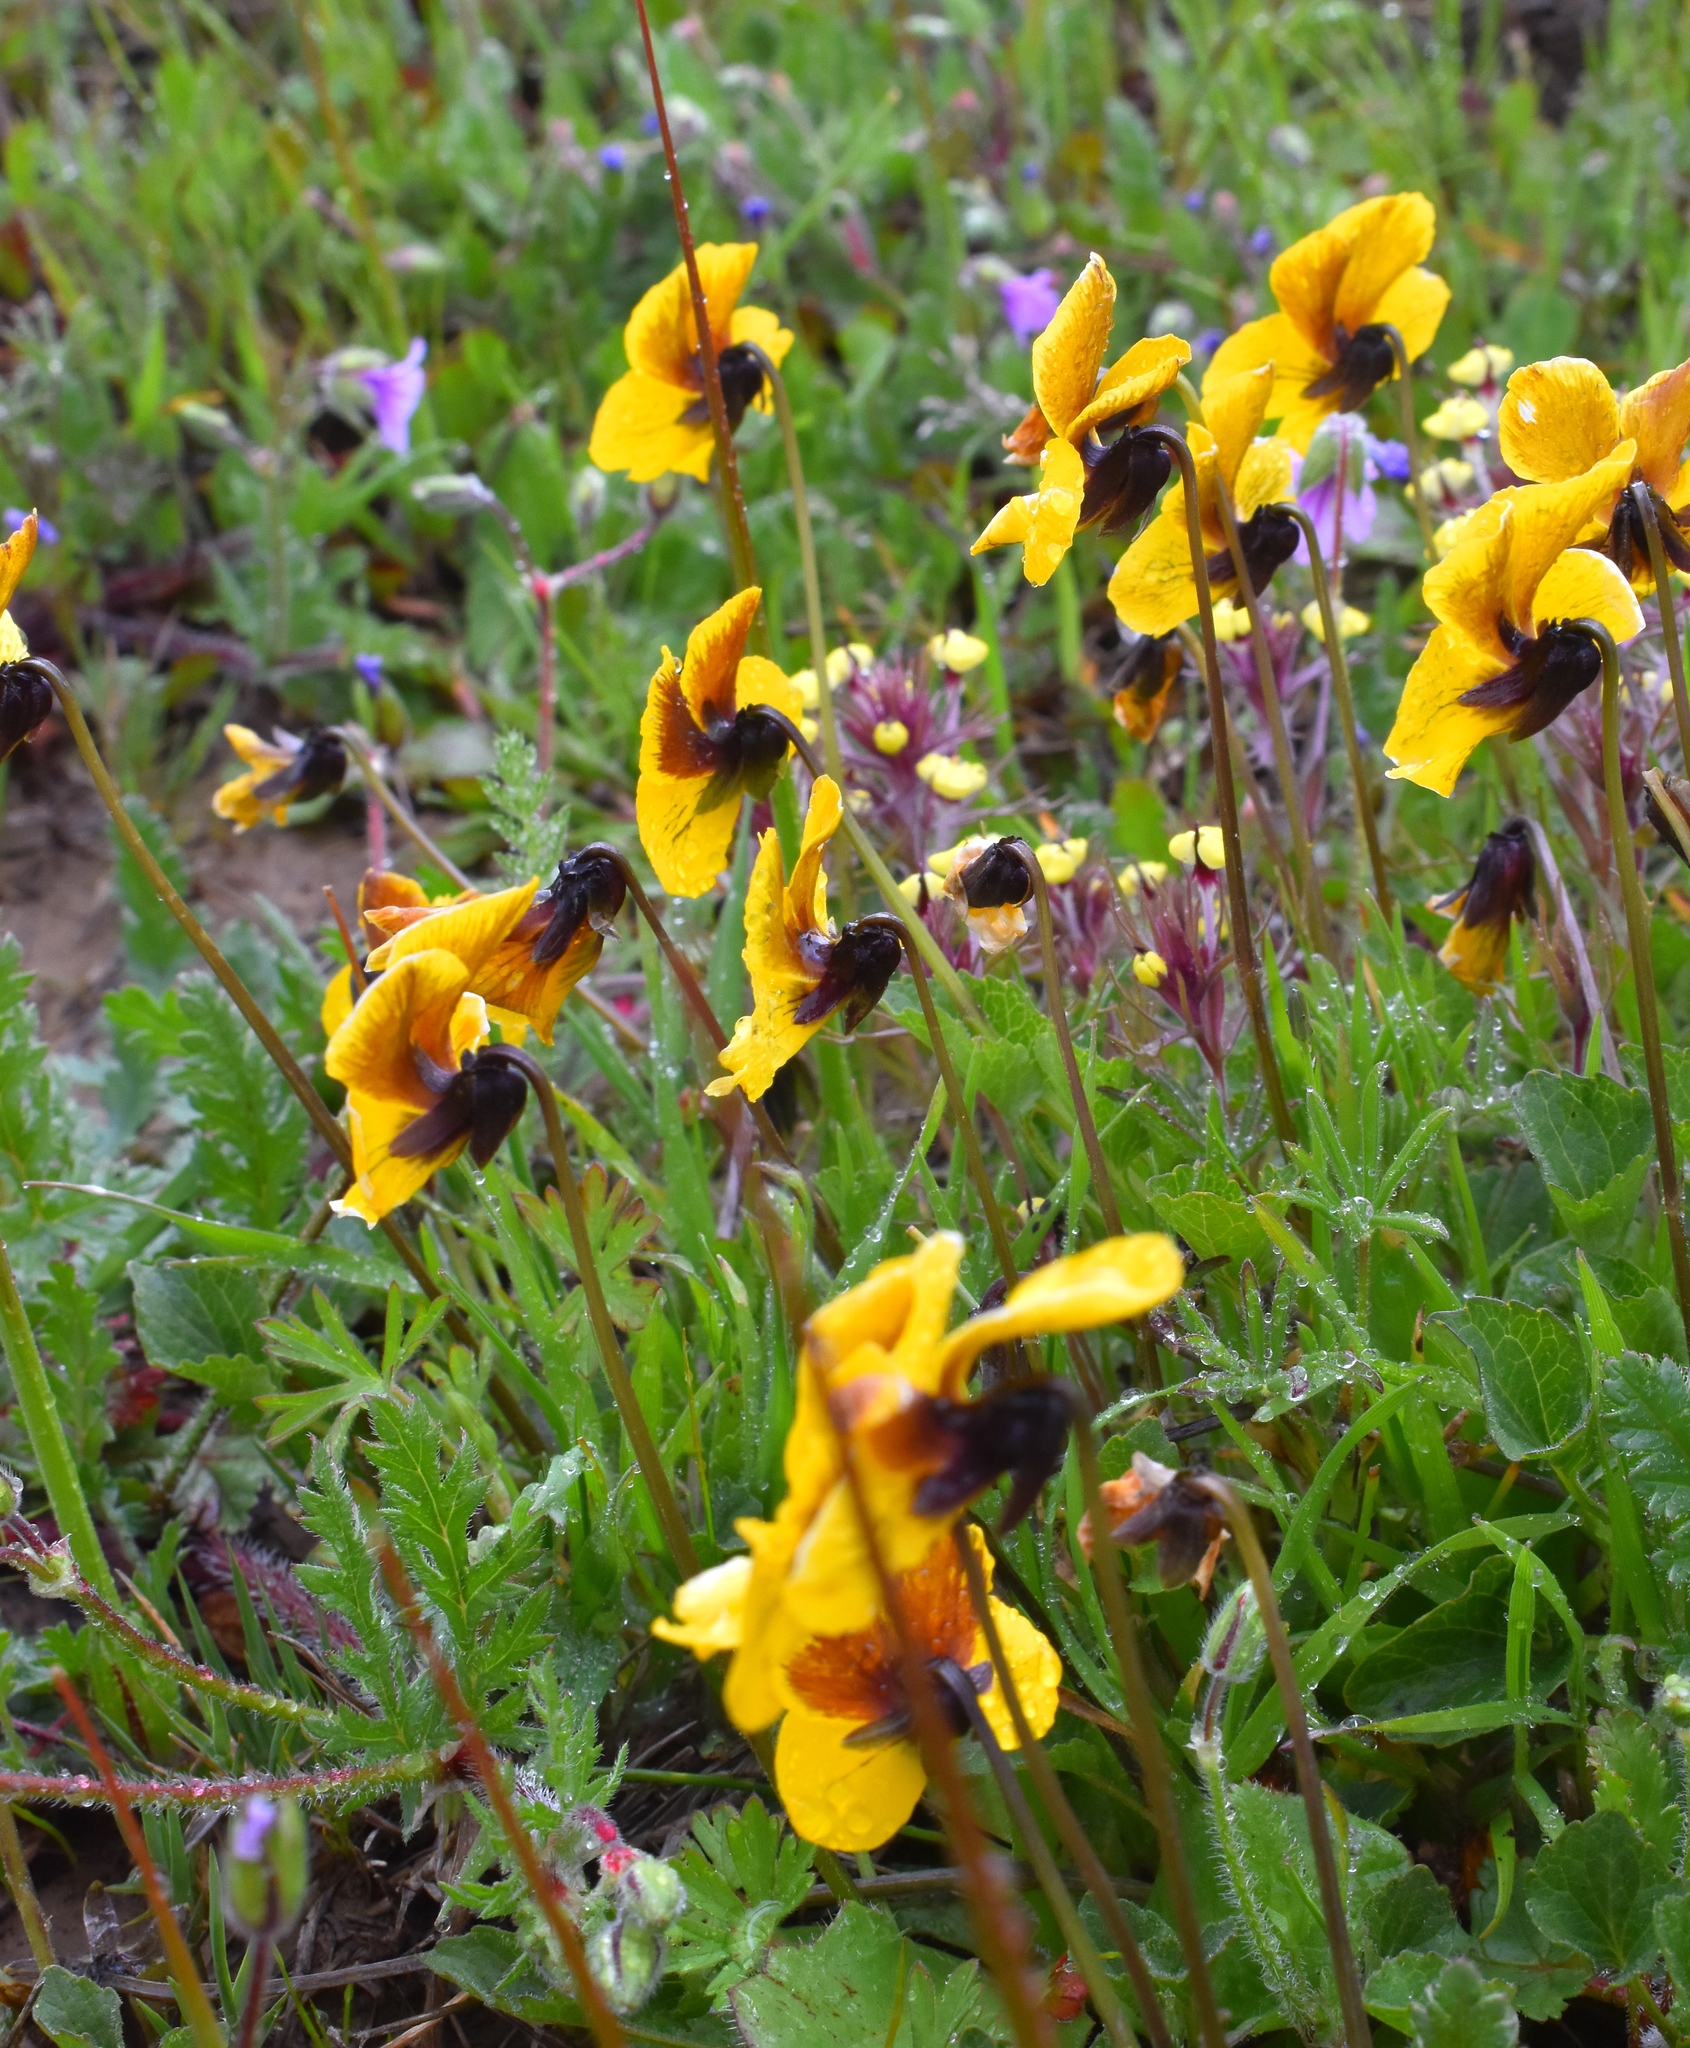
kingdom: Plantae
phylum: Tracheophyta
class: Magnoliopsida
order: Malpighiales
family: Violaceae
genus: Viola
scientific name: Viola pedunculata
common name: California golden violet
